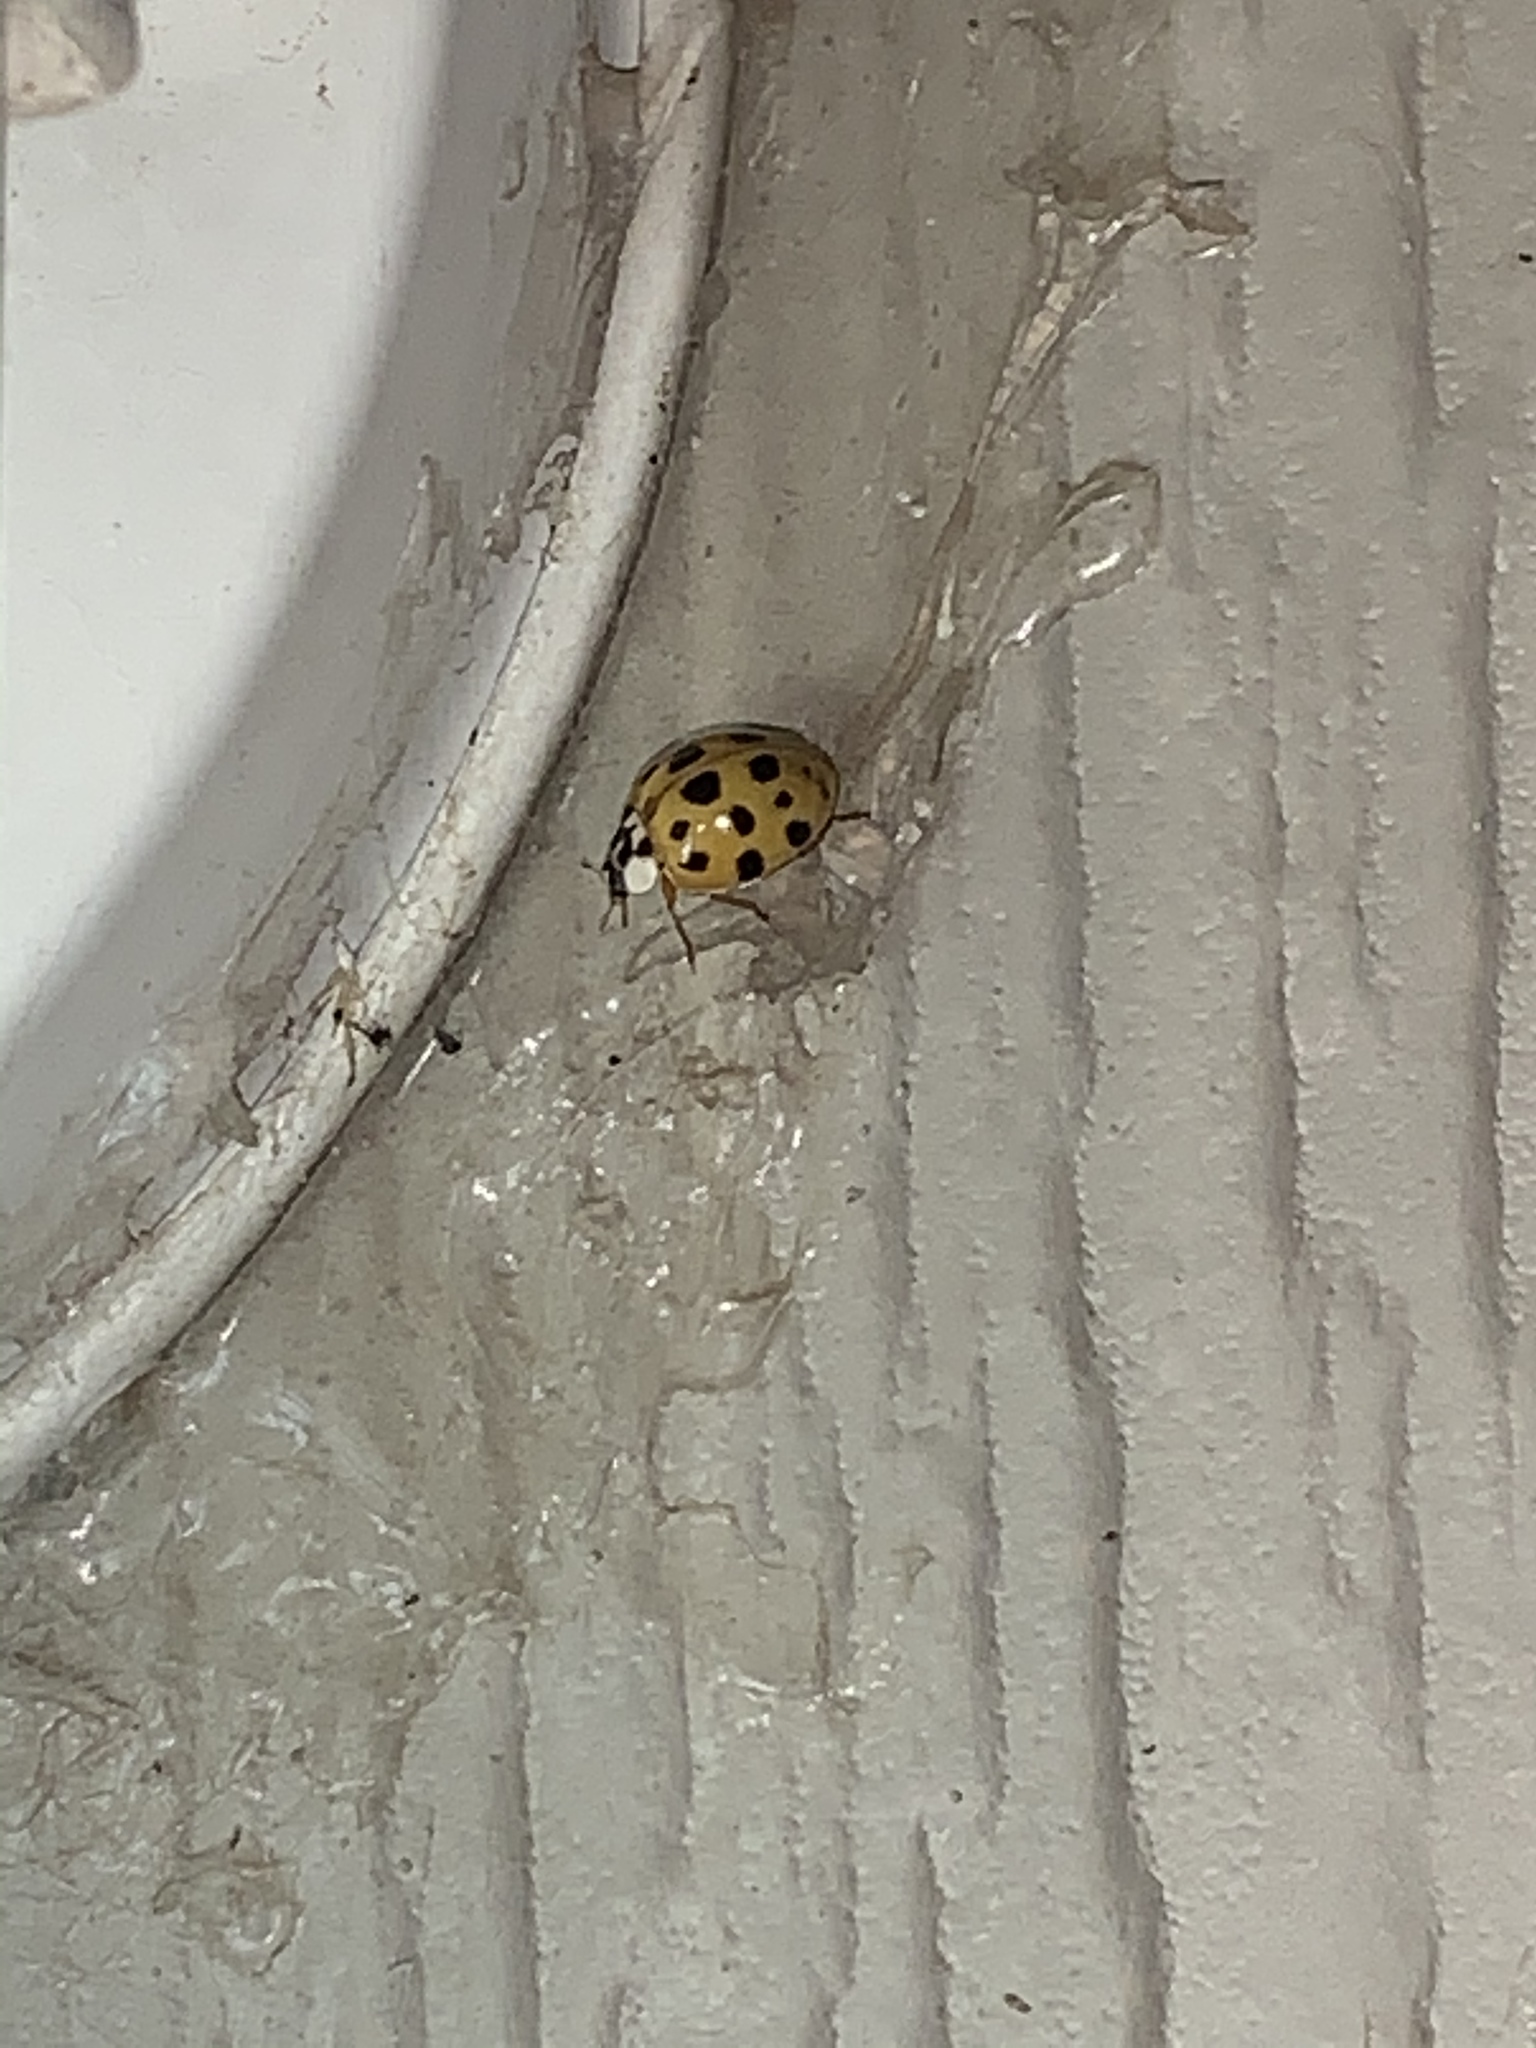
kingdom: Animalia
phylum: Arthropoda
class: Insecta
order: Coleoptera
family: Coccinellidae
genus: Harmonia
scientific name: Harmonia axyridis
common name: Harlequin ladybird
